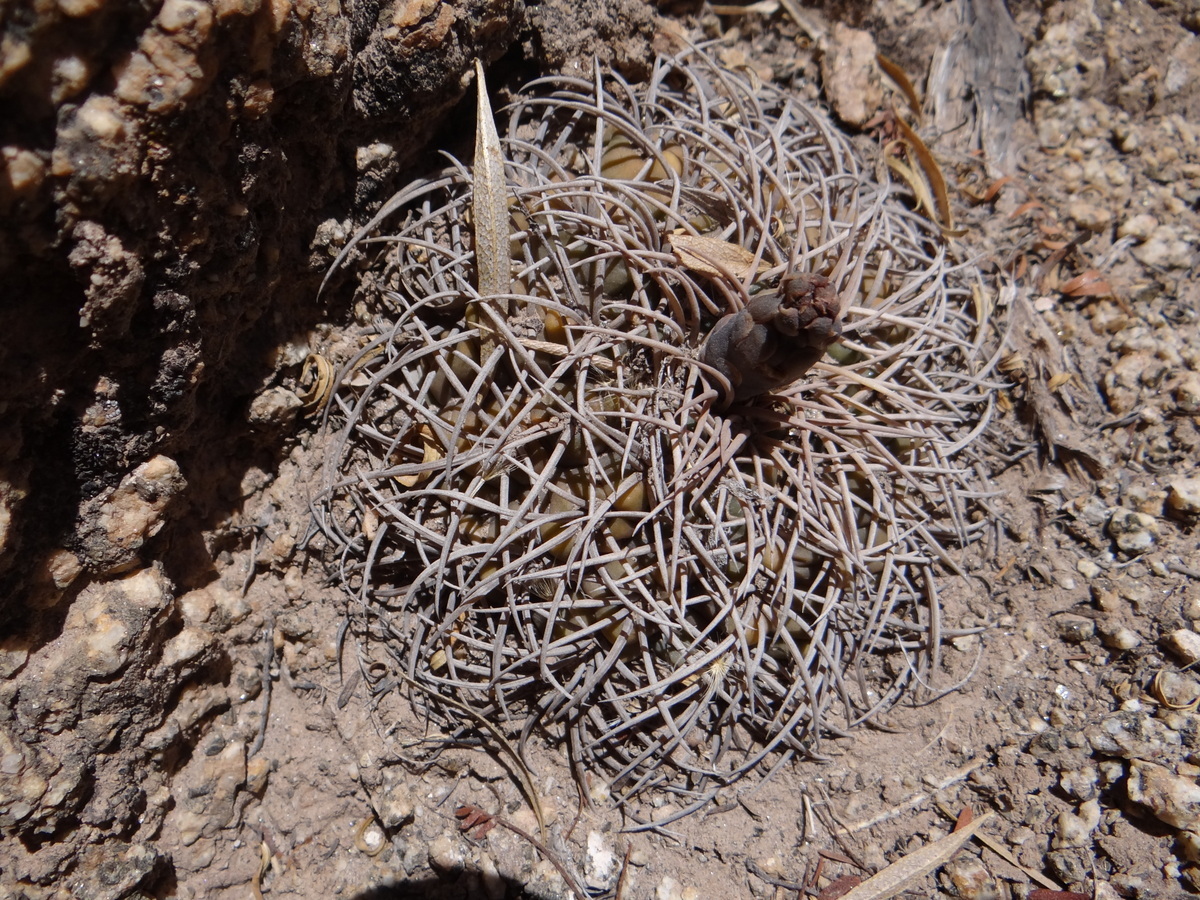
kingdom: Plantae
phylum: Tracheophyta
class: Magnoliopsida
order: Caryophyllales
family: Cactaceae
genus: Gymnocalycium
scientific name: Gymnocalycium pugionacanthum
